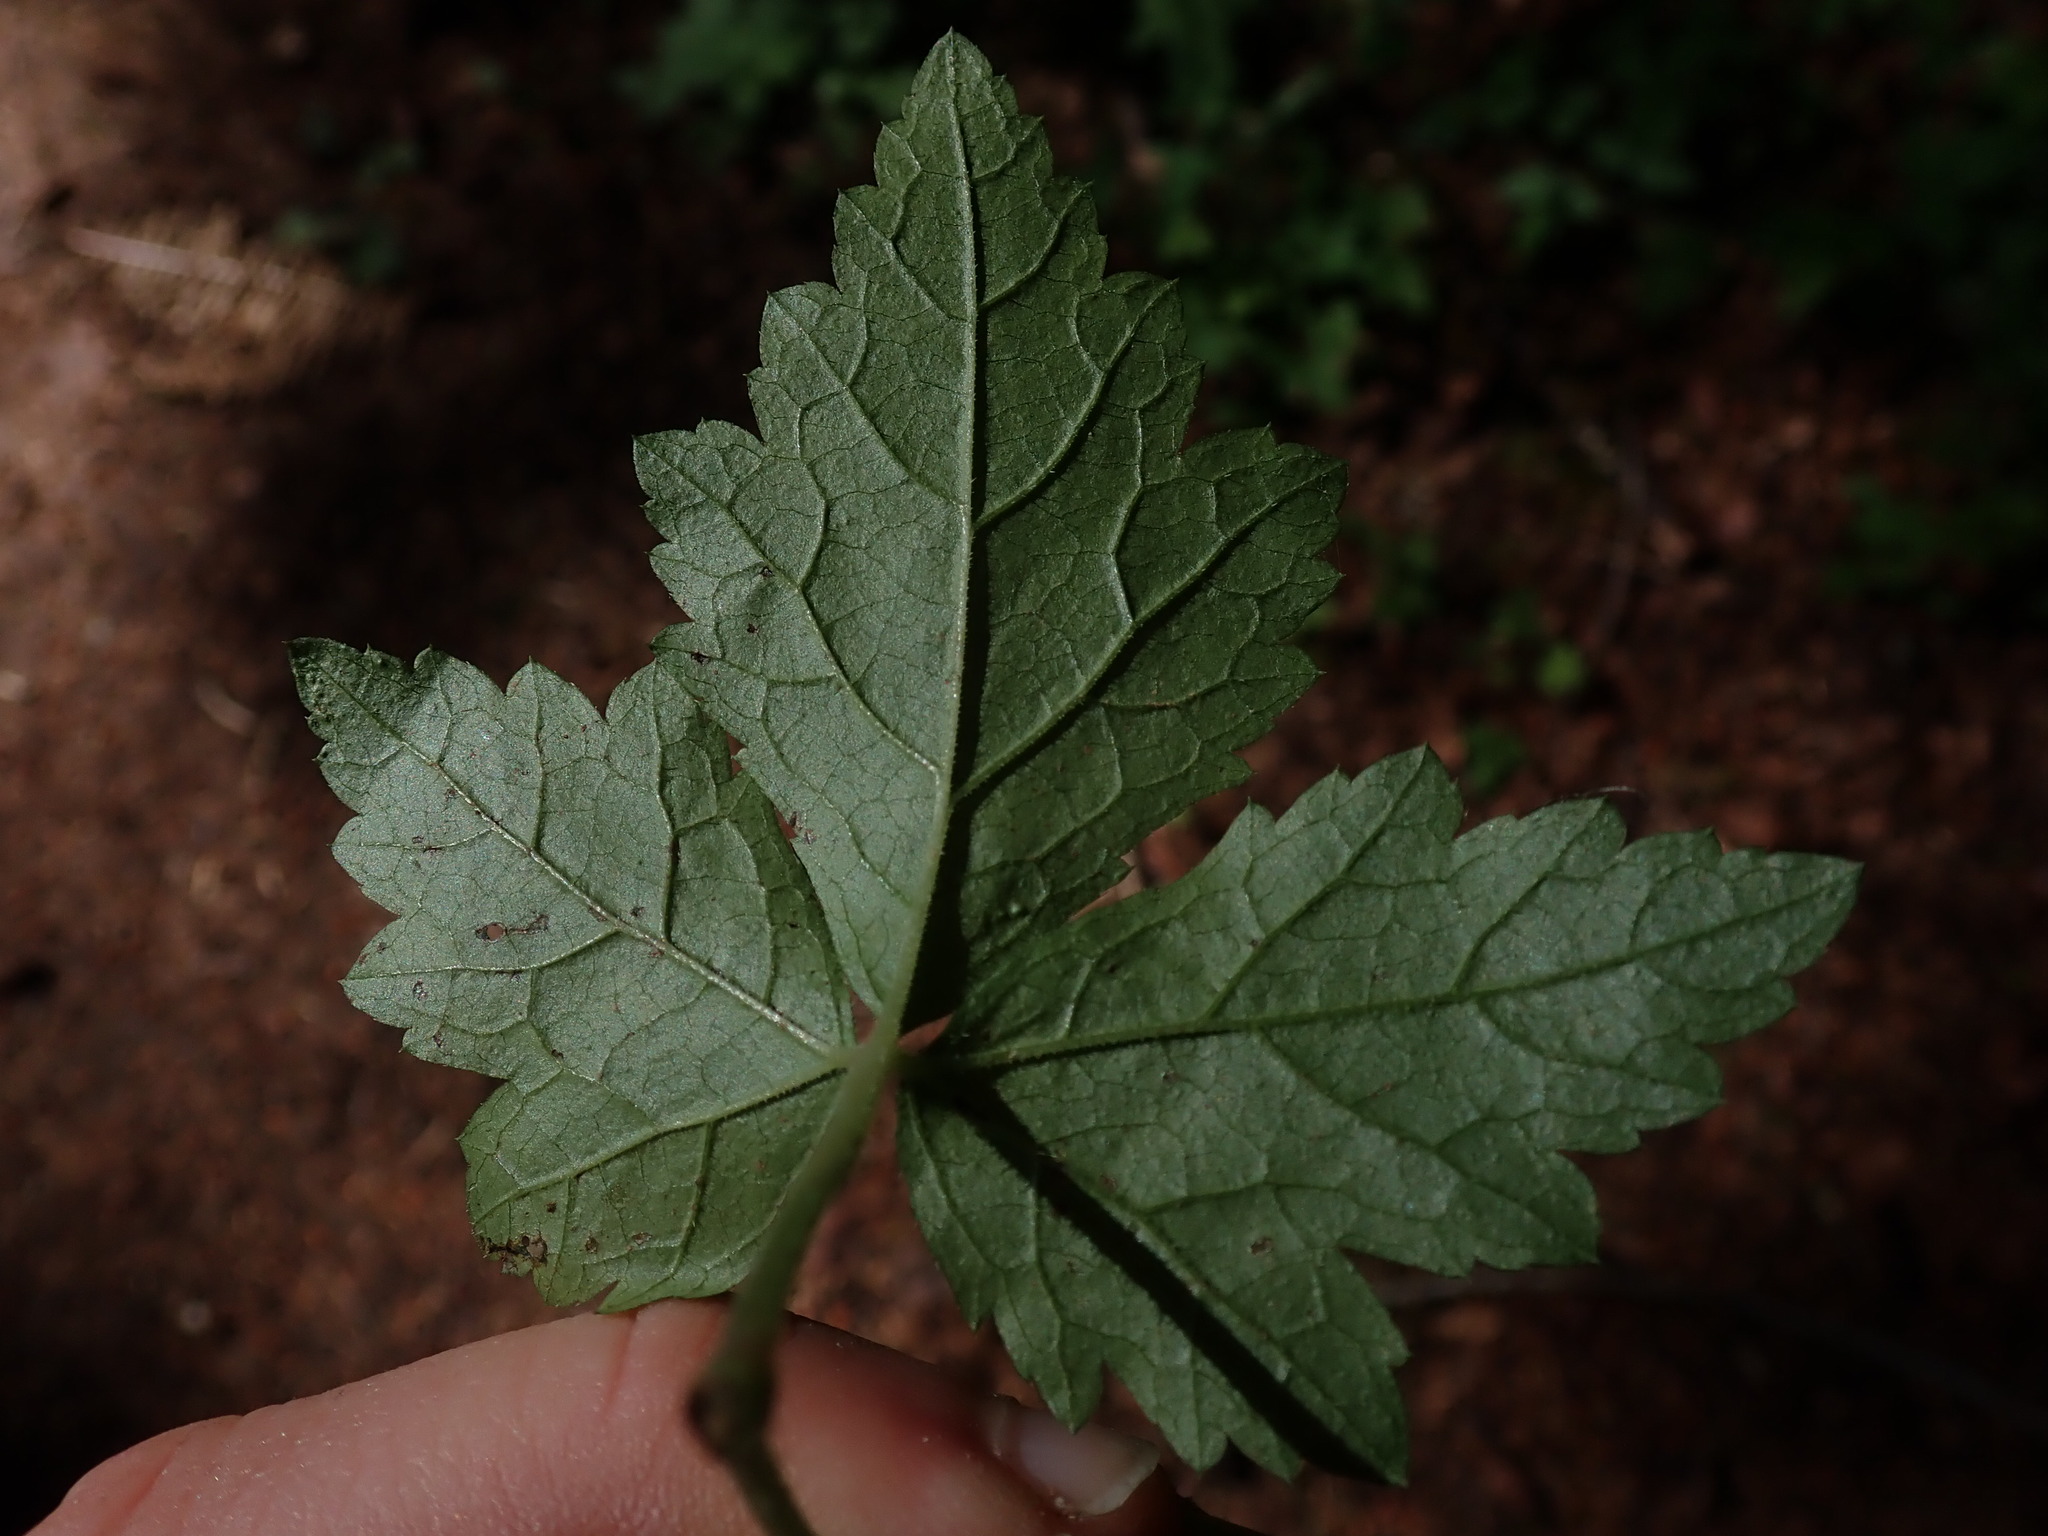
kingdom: Plantae
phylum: Tracheophyta
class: Magnoliopsida
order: Saxifragales
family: Saxifragaceae
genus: Tiarella
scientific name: Tiarella trifoliata
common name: Sugar-scoop
